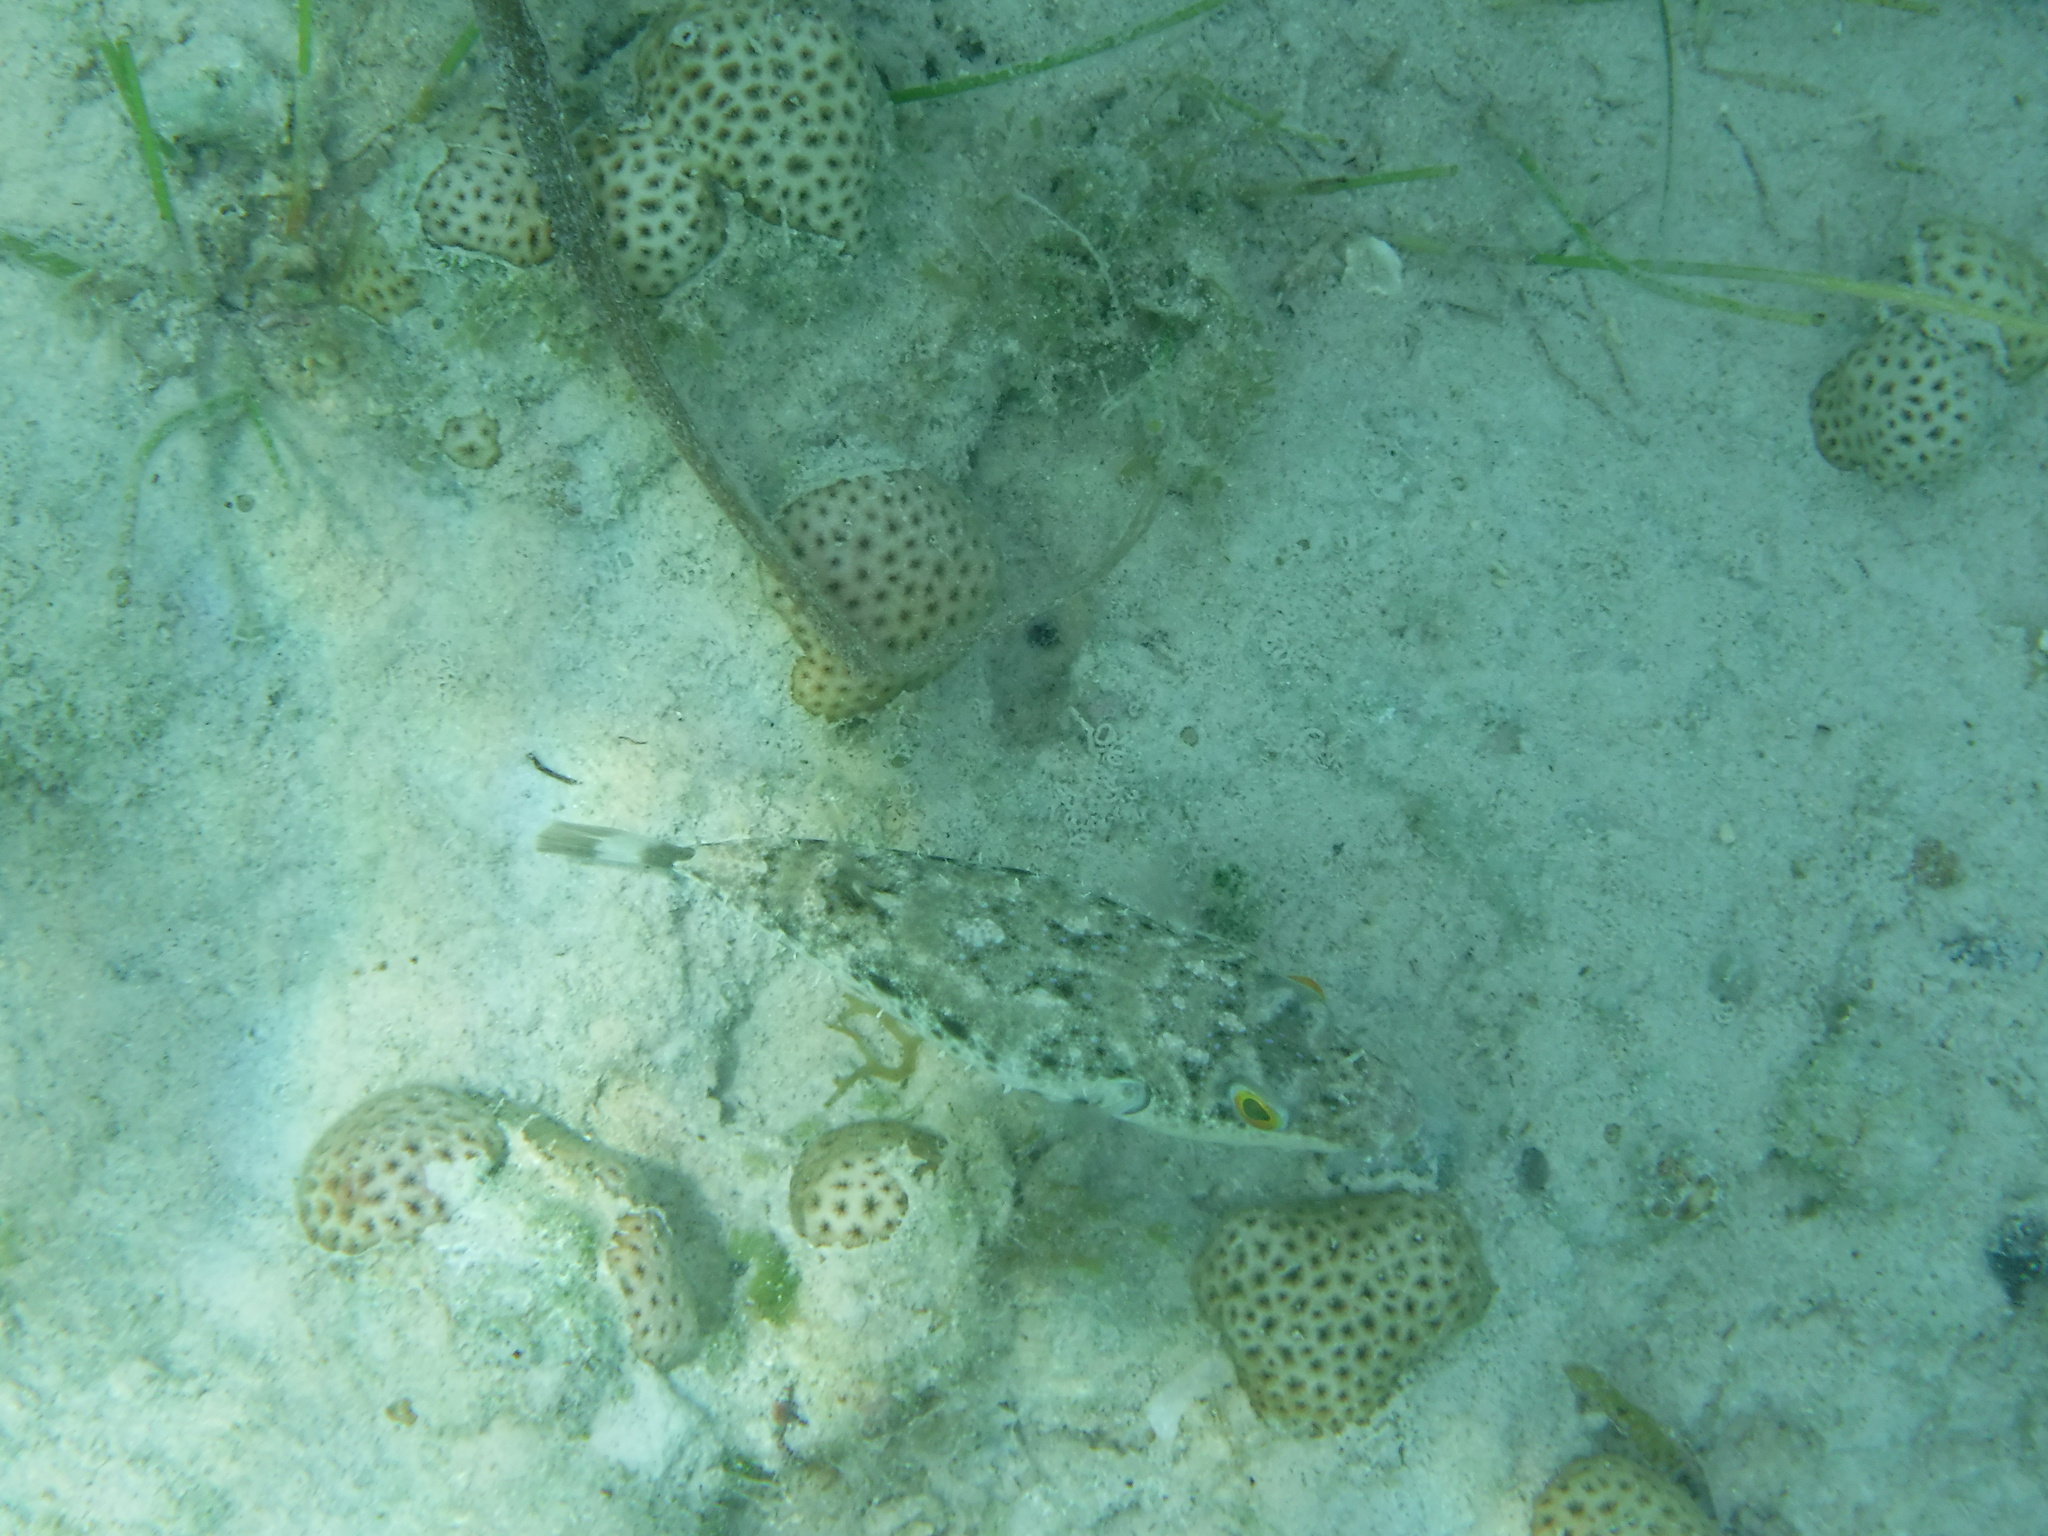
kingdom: Animalia
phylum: Chordata
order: Tetraodontiformes
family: Tetraodontidae
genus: Sphoeroides
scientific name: Sphoeroides spengleri
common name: Bandtail puffer
